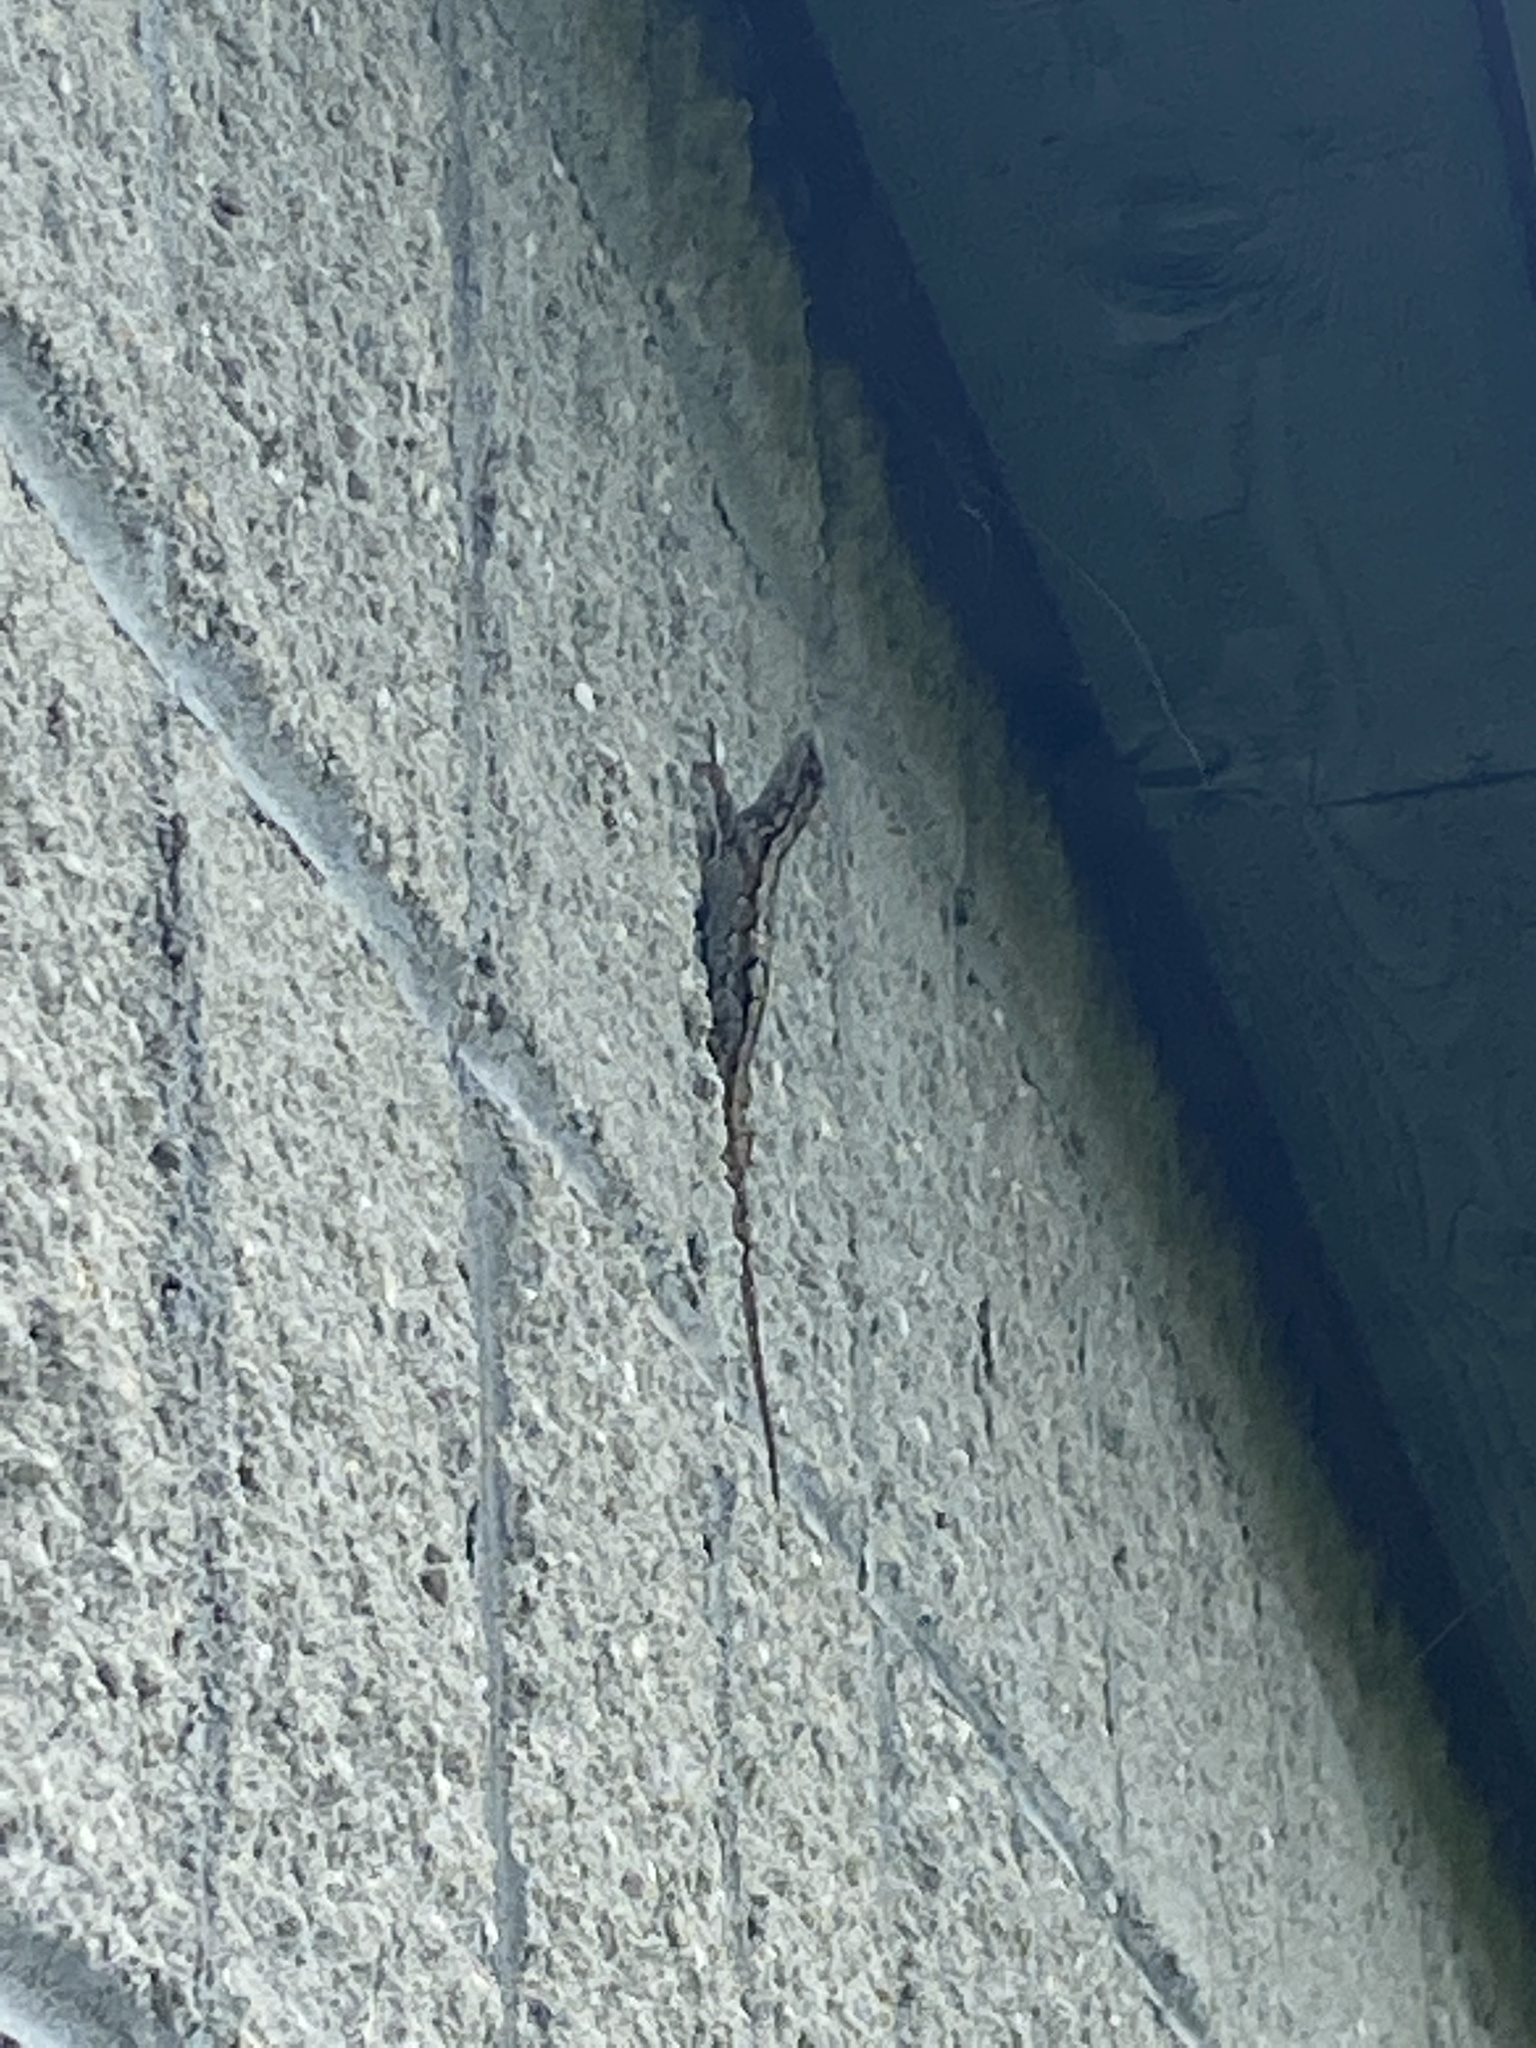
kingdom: Animalia
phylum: Chordata
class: Squamata
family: Phrynosomatidae
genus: Sceloporus
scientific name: Sceloporus undulatus
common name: Eastern fence lizard
